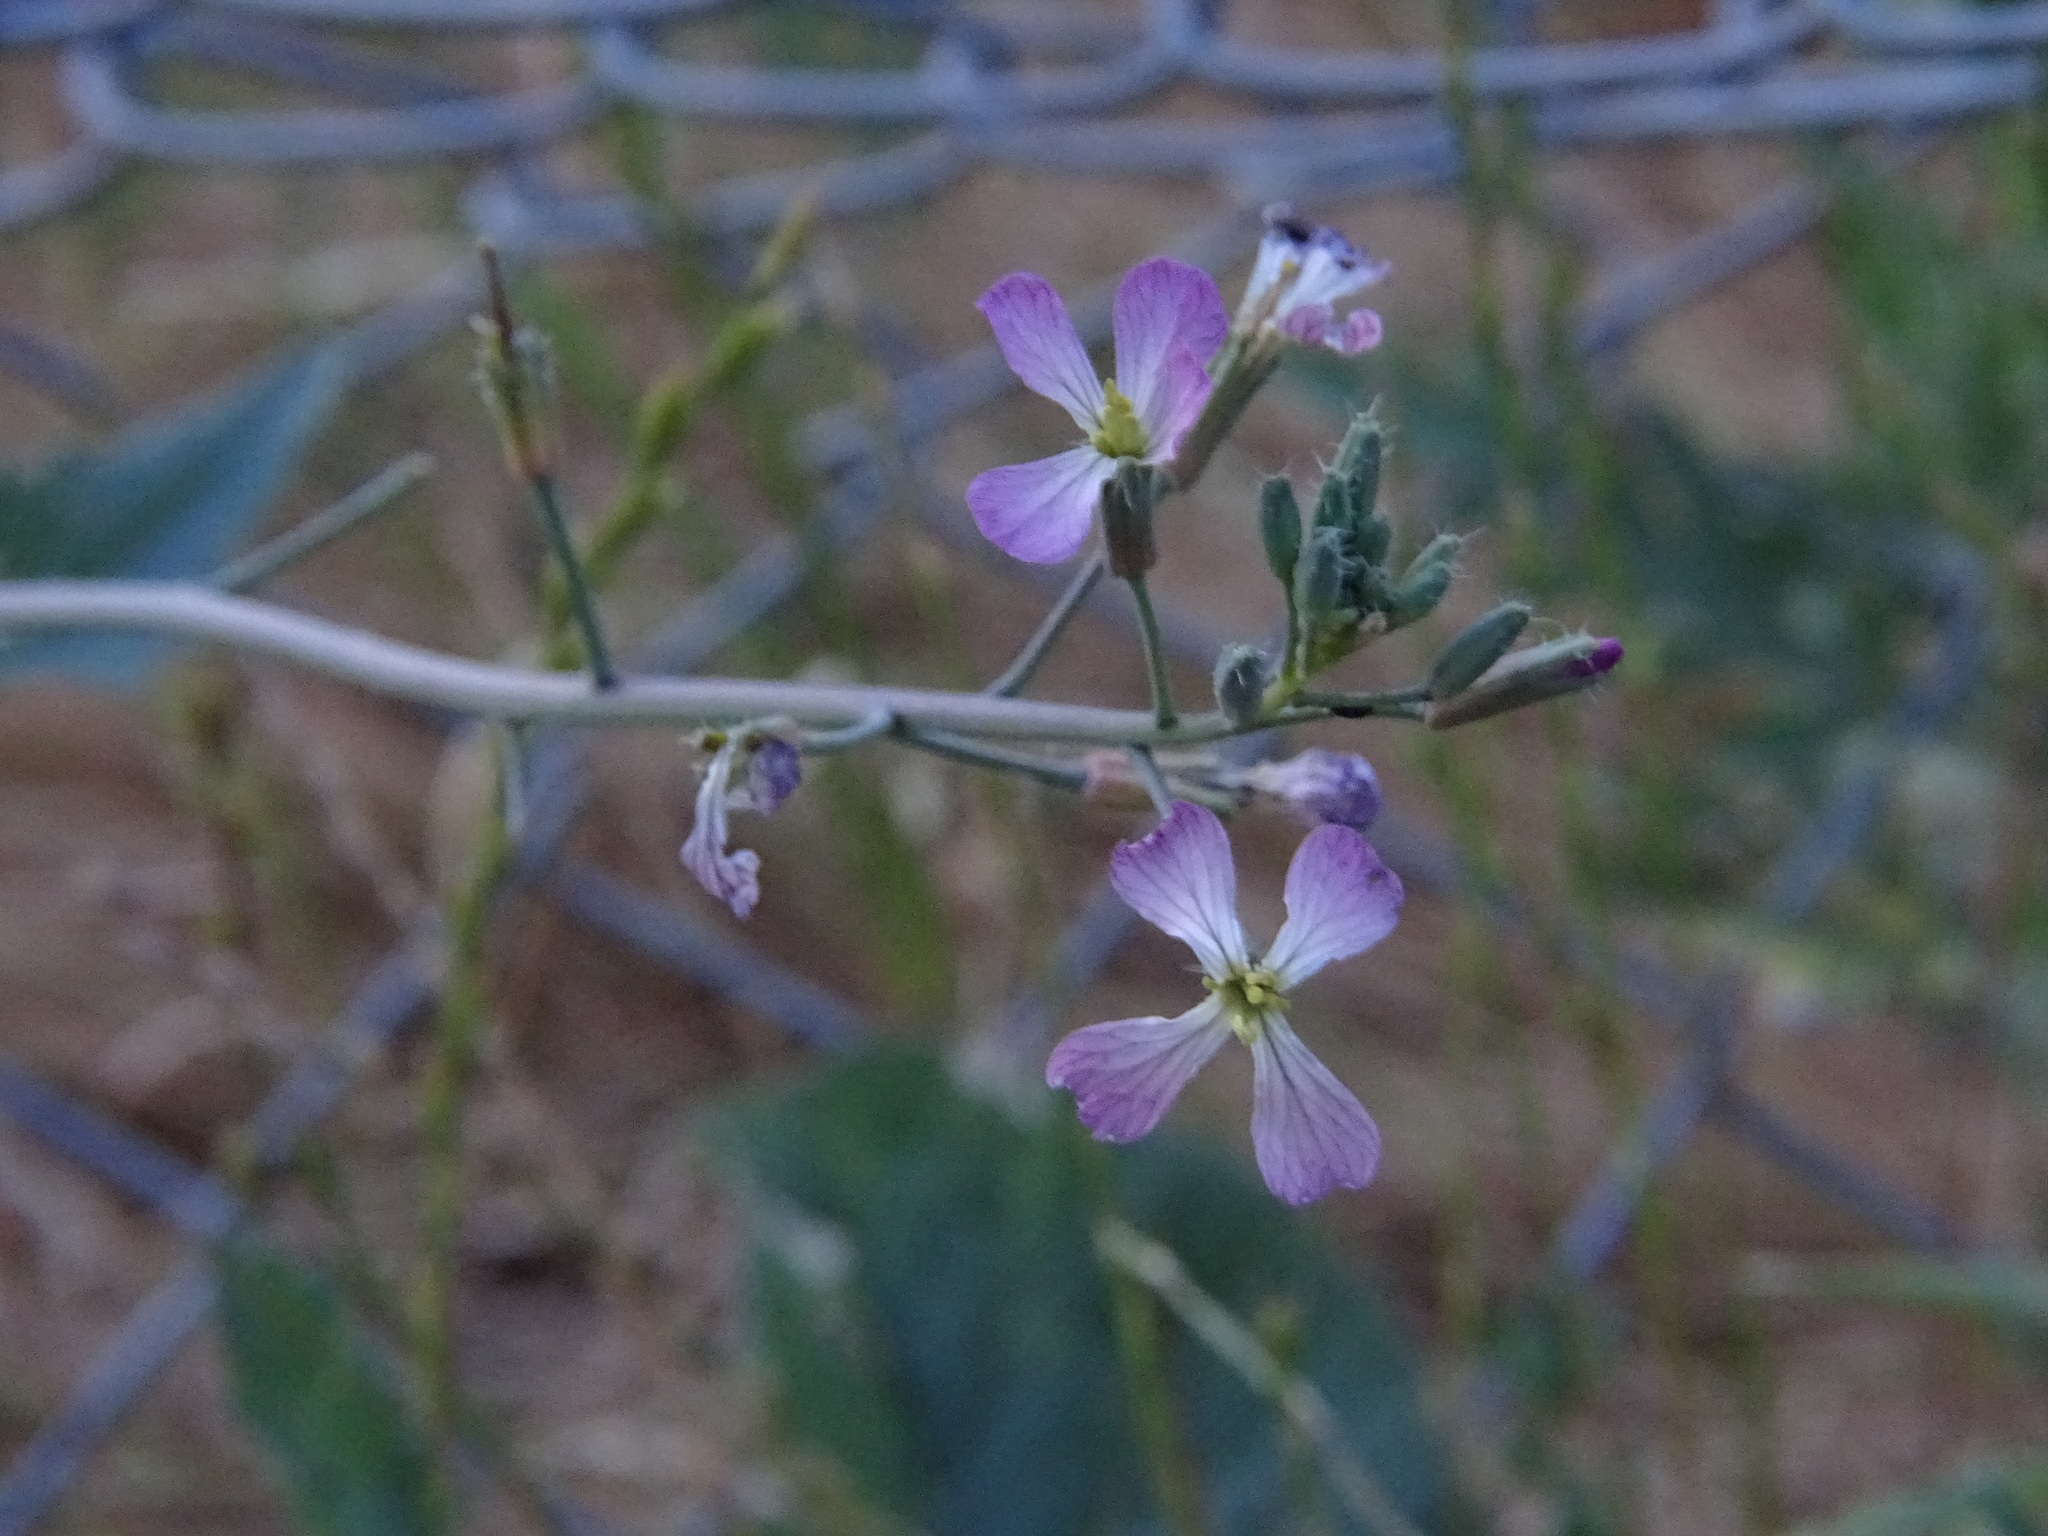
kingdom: Plantae
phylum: Tracheophyta
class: Magnoliopsida
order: Brassicales
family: Brassicaceae
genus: Raphanus
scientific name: Raphanus sativus
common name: Cultivated radish
